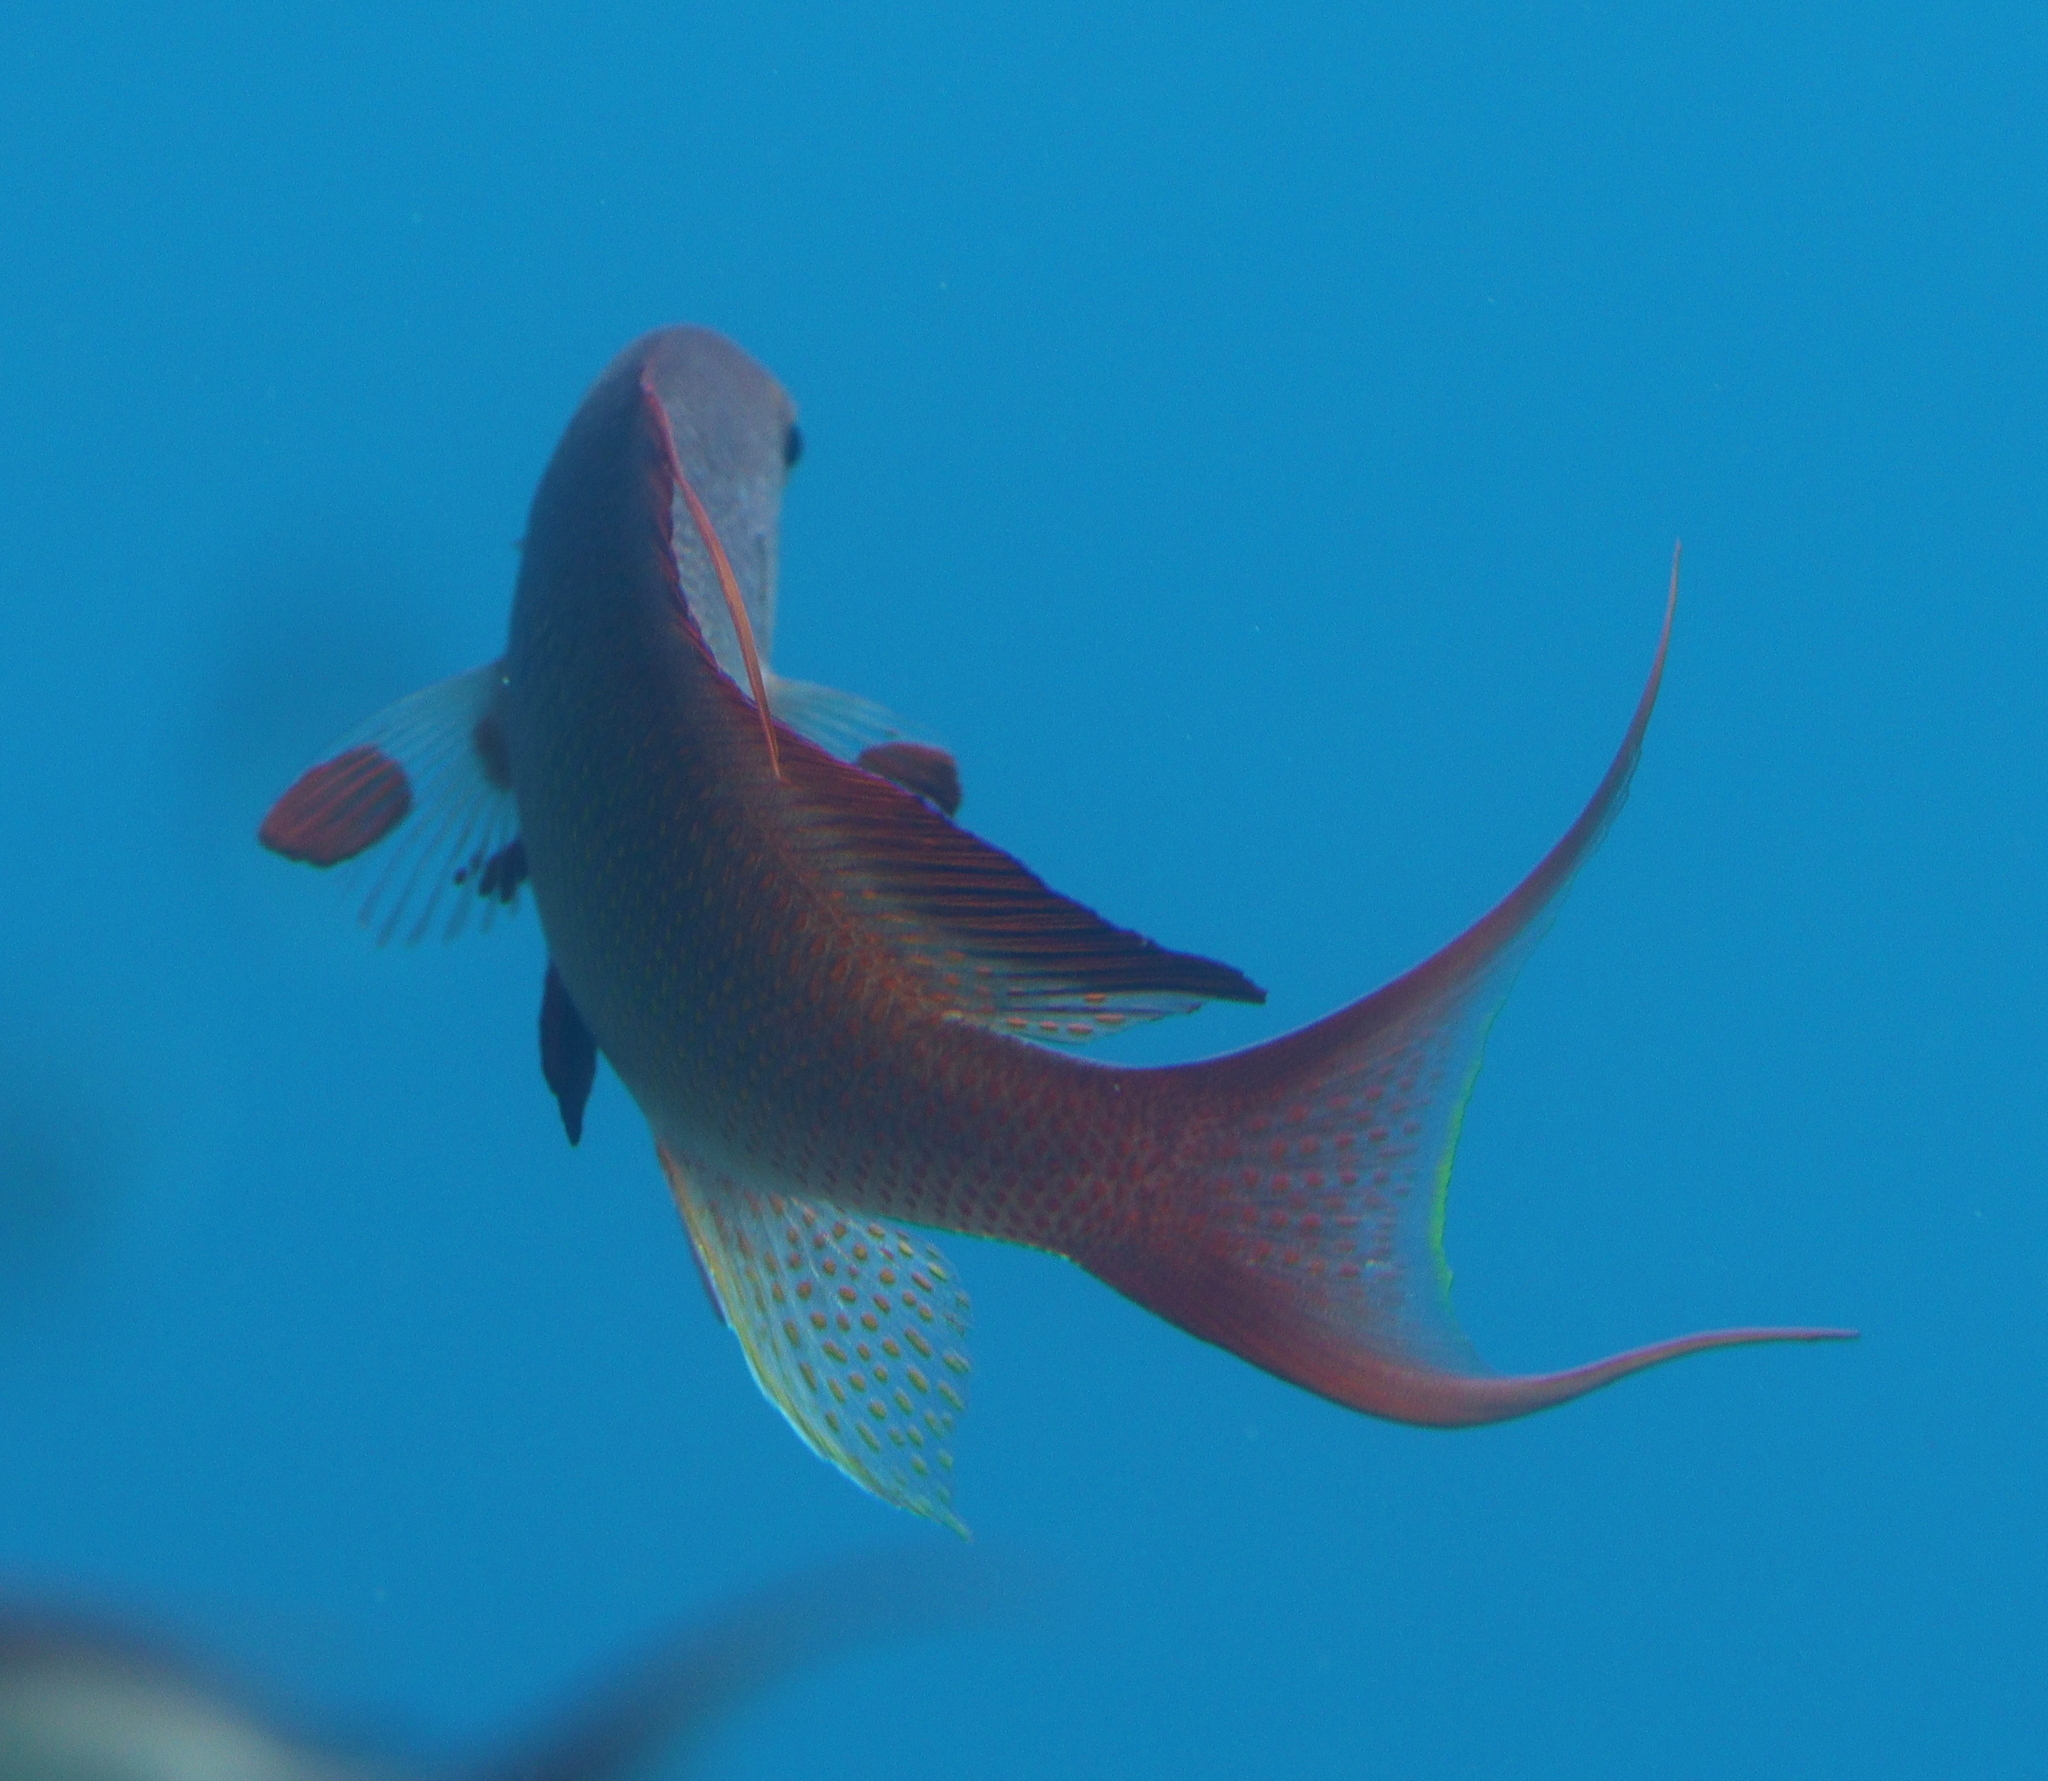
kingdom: Animalia
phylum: Chordata
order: Perciformes
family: Serranidae
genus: Pseudanthias
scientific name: Pseudanthias squamipinnis
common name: Scalefin anthias
